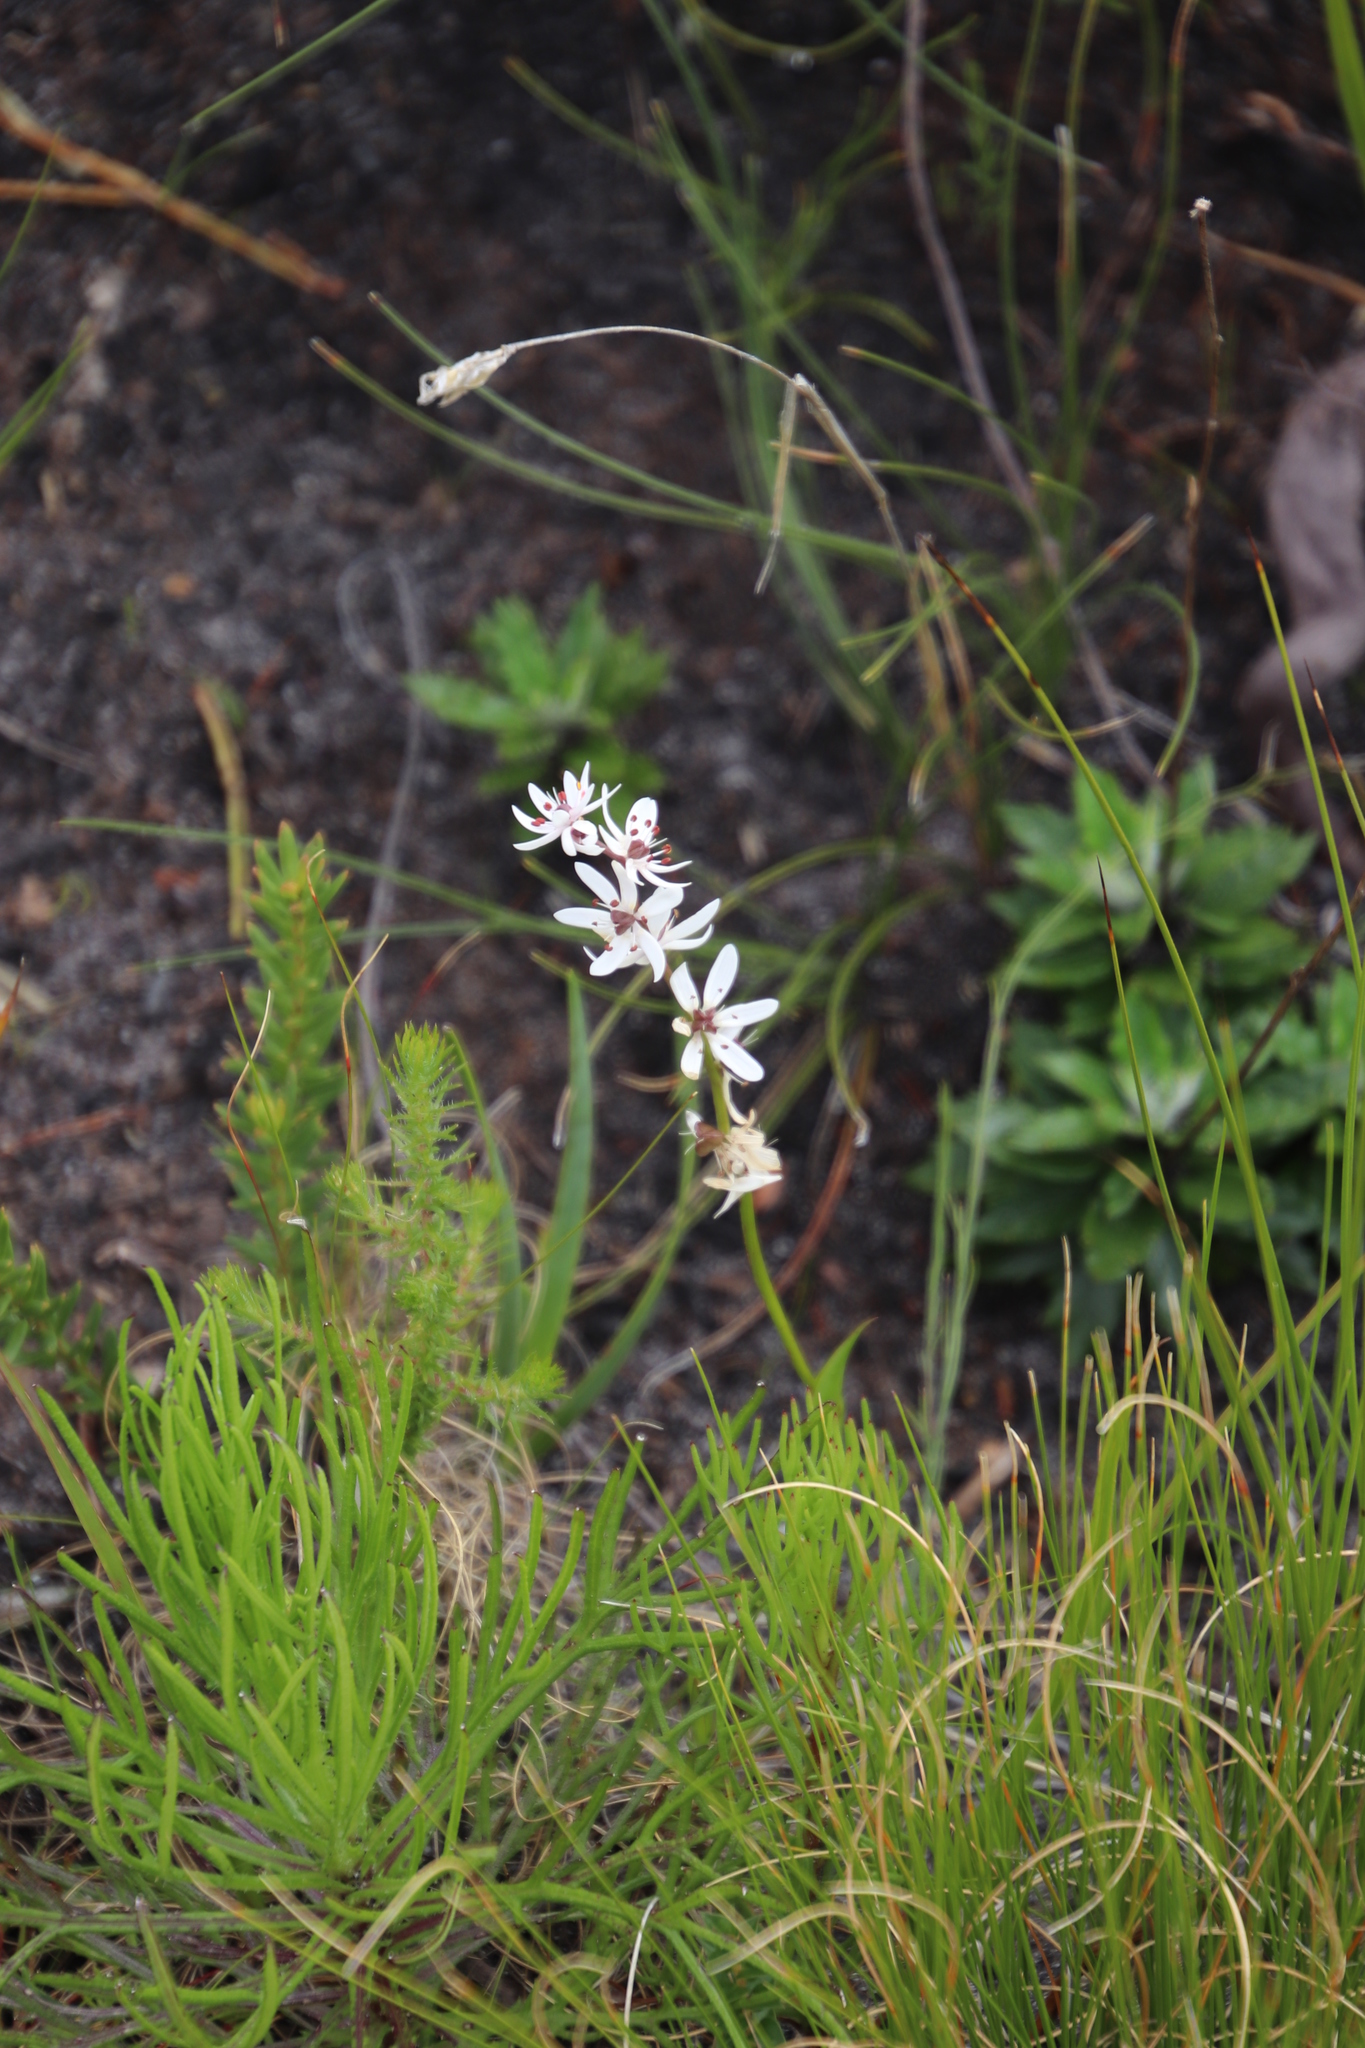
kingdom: Plantae
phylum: Tracheophyta
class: Liliopsida
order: Liliales
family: Colchicaceae
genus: Wurmbea
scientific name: Wurmbea punctata
